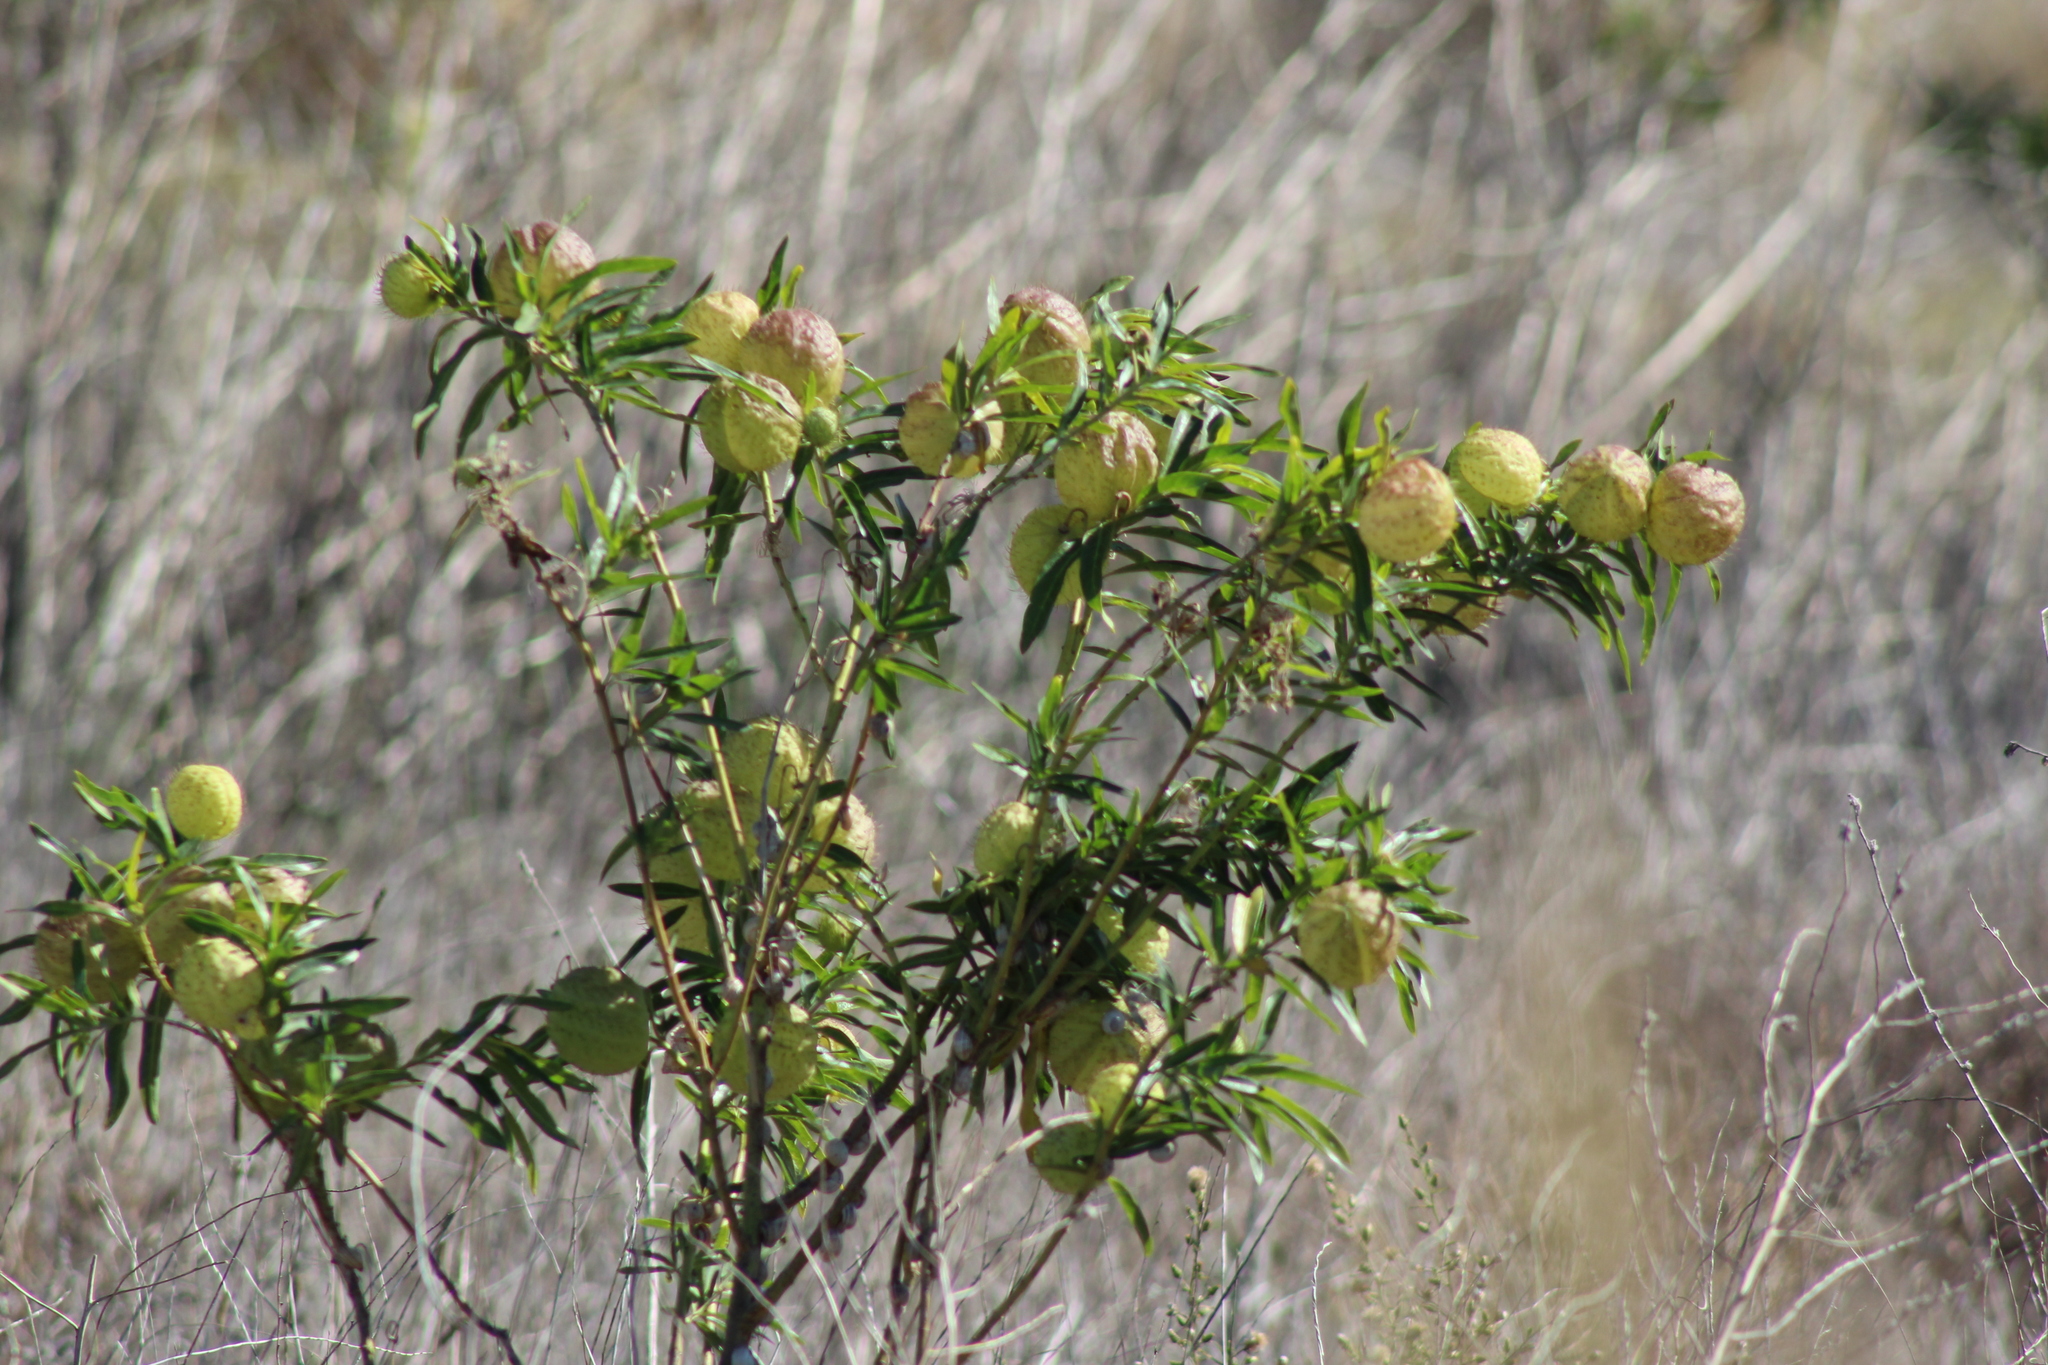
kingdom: Plantae
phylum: Tracheophyta
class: Magnoliopsida
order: Gentianales
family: Apocynaceae
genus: Gomphocarpus
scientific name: Gomphocarpus physocarpus
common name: Balloon cotton bush
